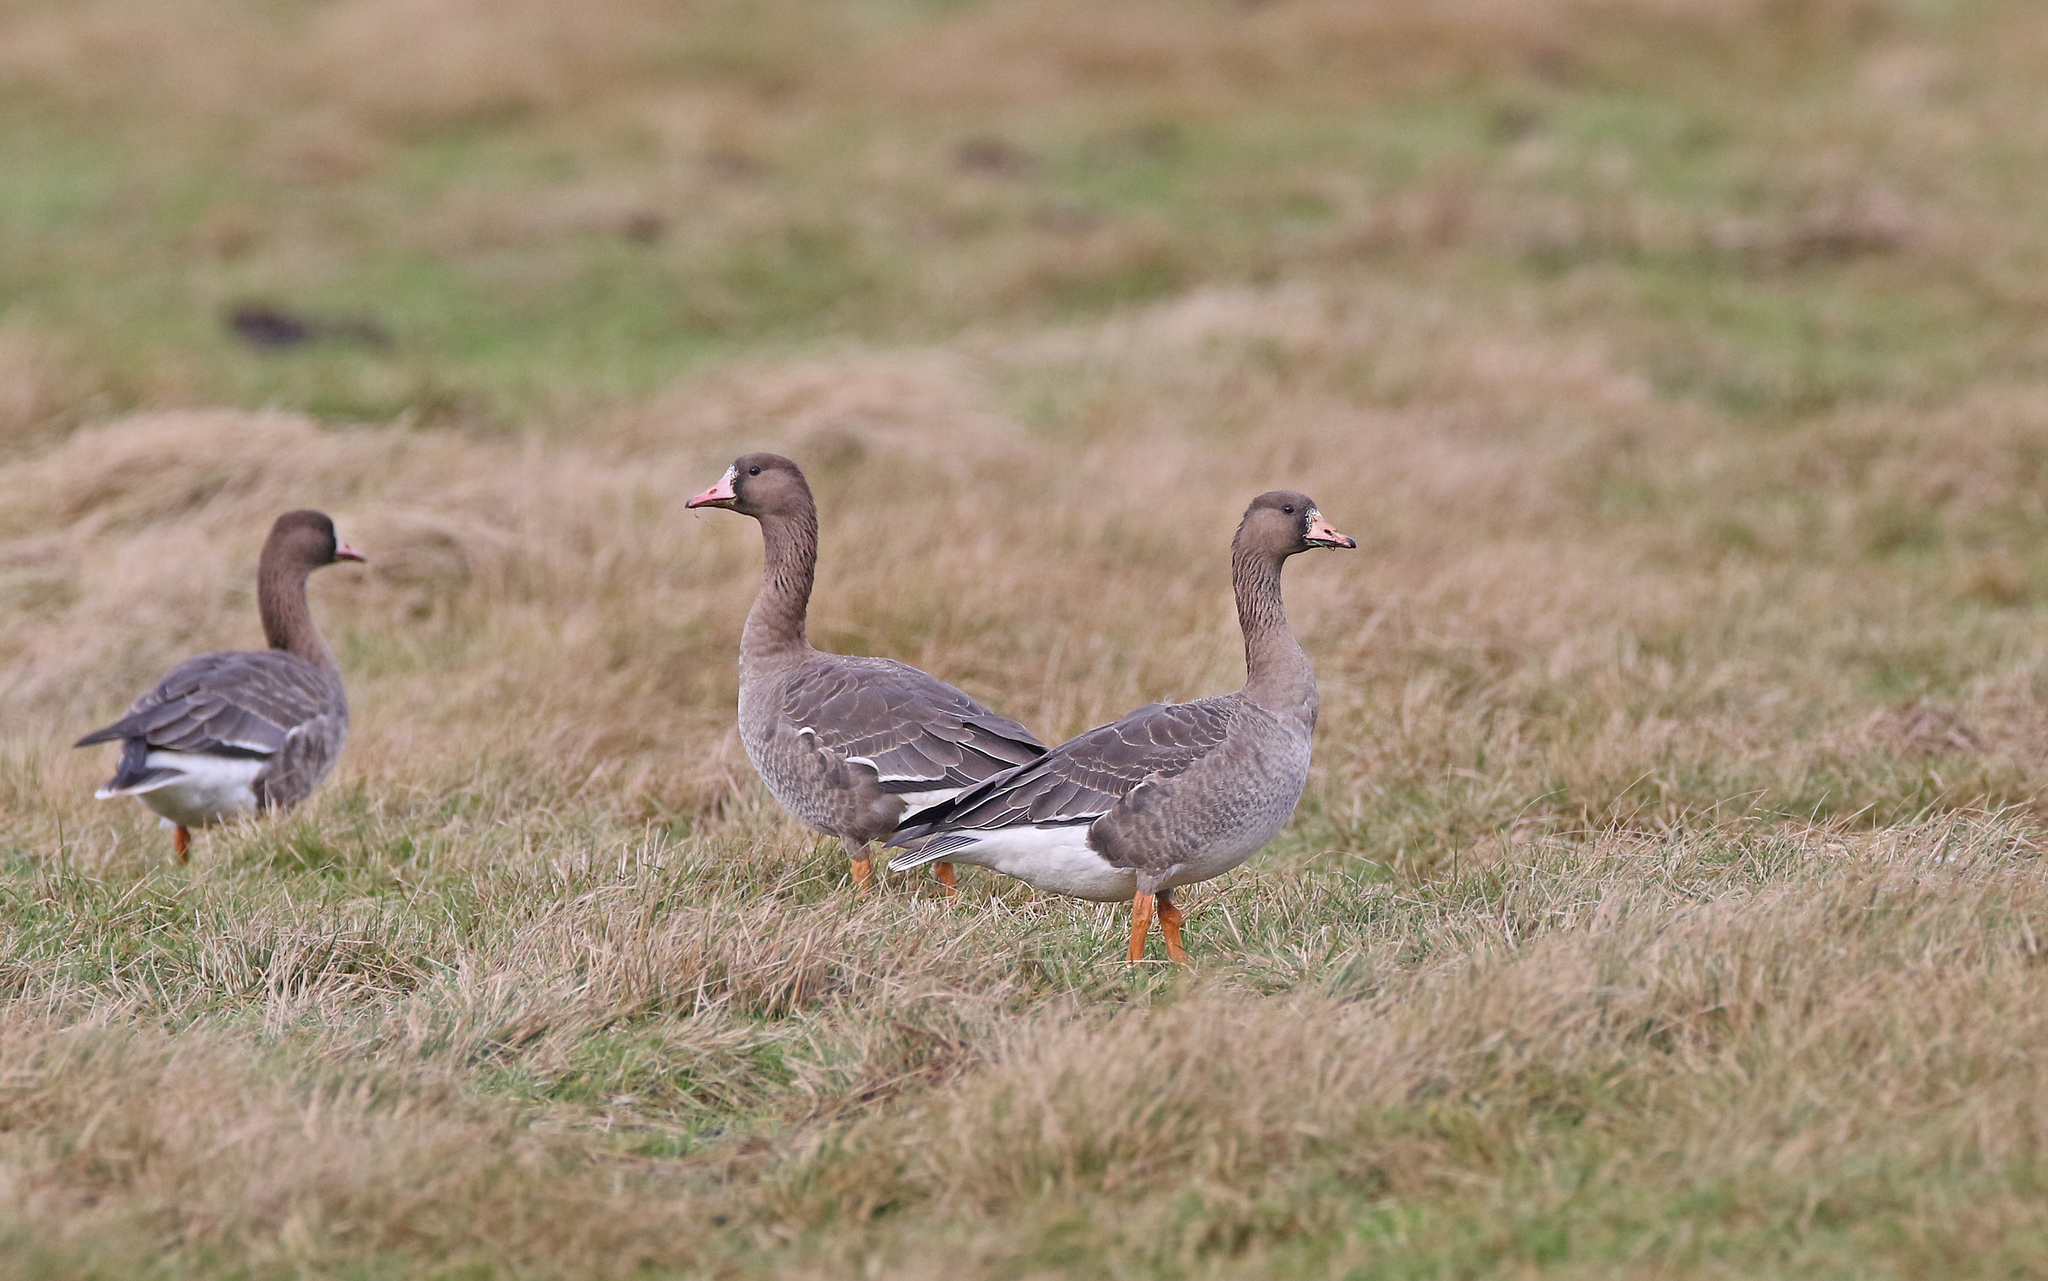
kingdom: Animalia
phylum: Chordata
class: Aves
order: Anseriformes
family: Anatidae
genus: Anser
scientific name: Anser albifrons
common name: Greater white-fronted goose
